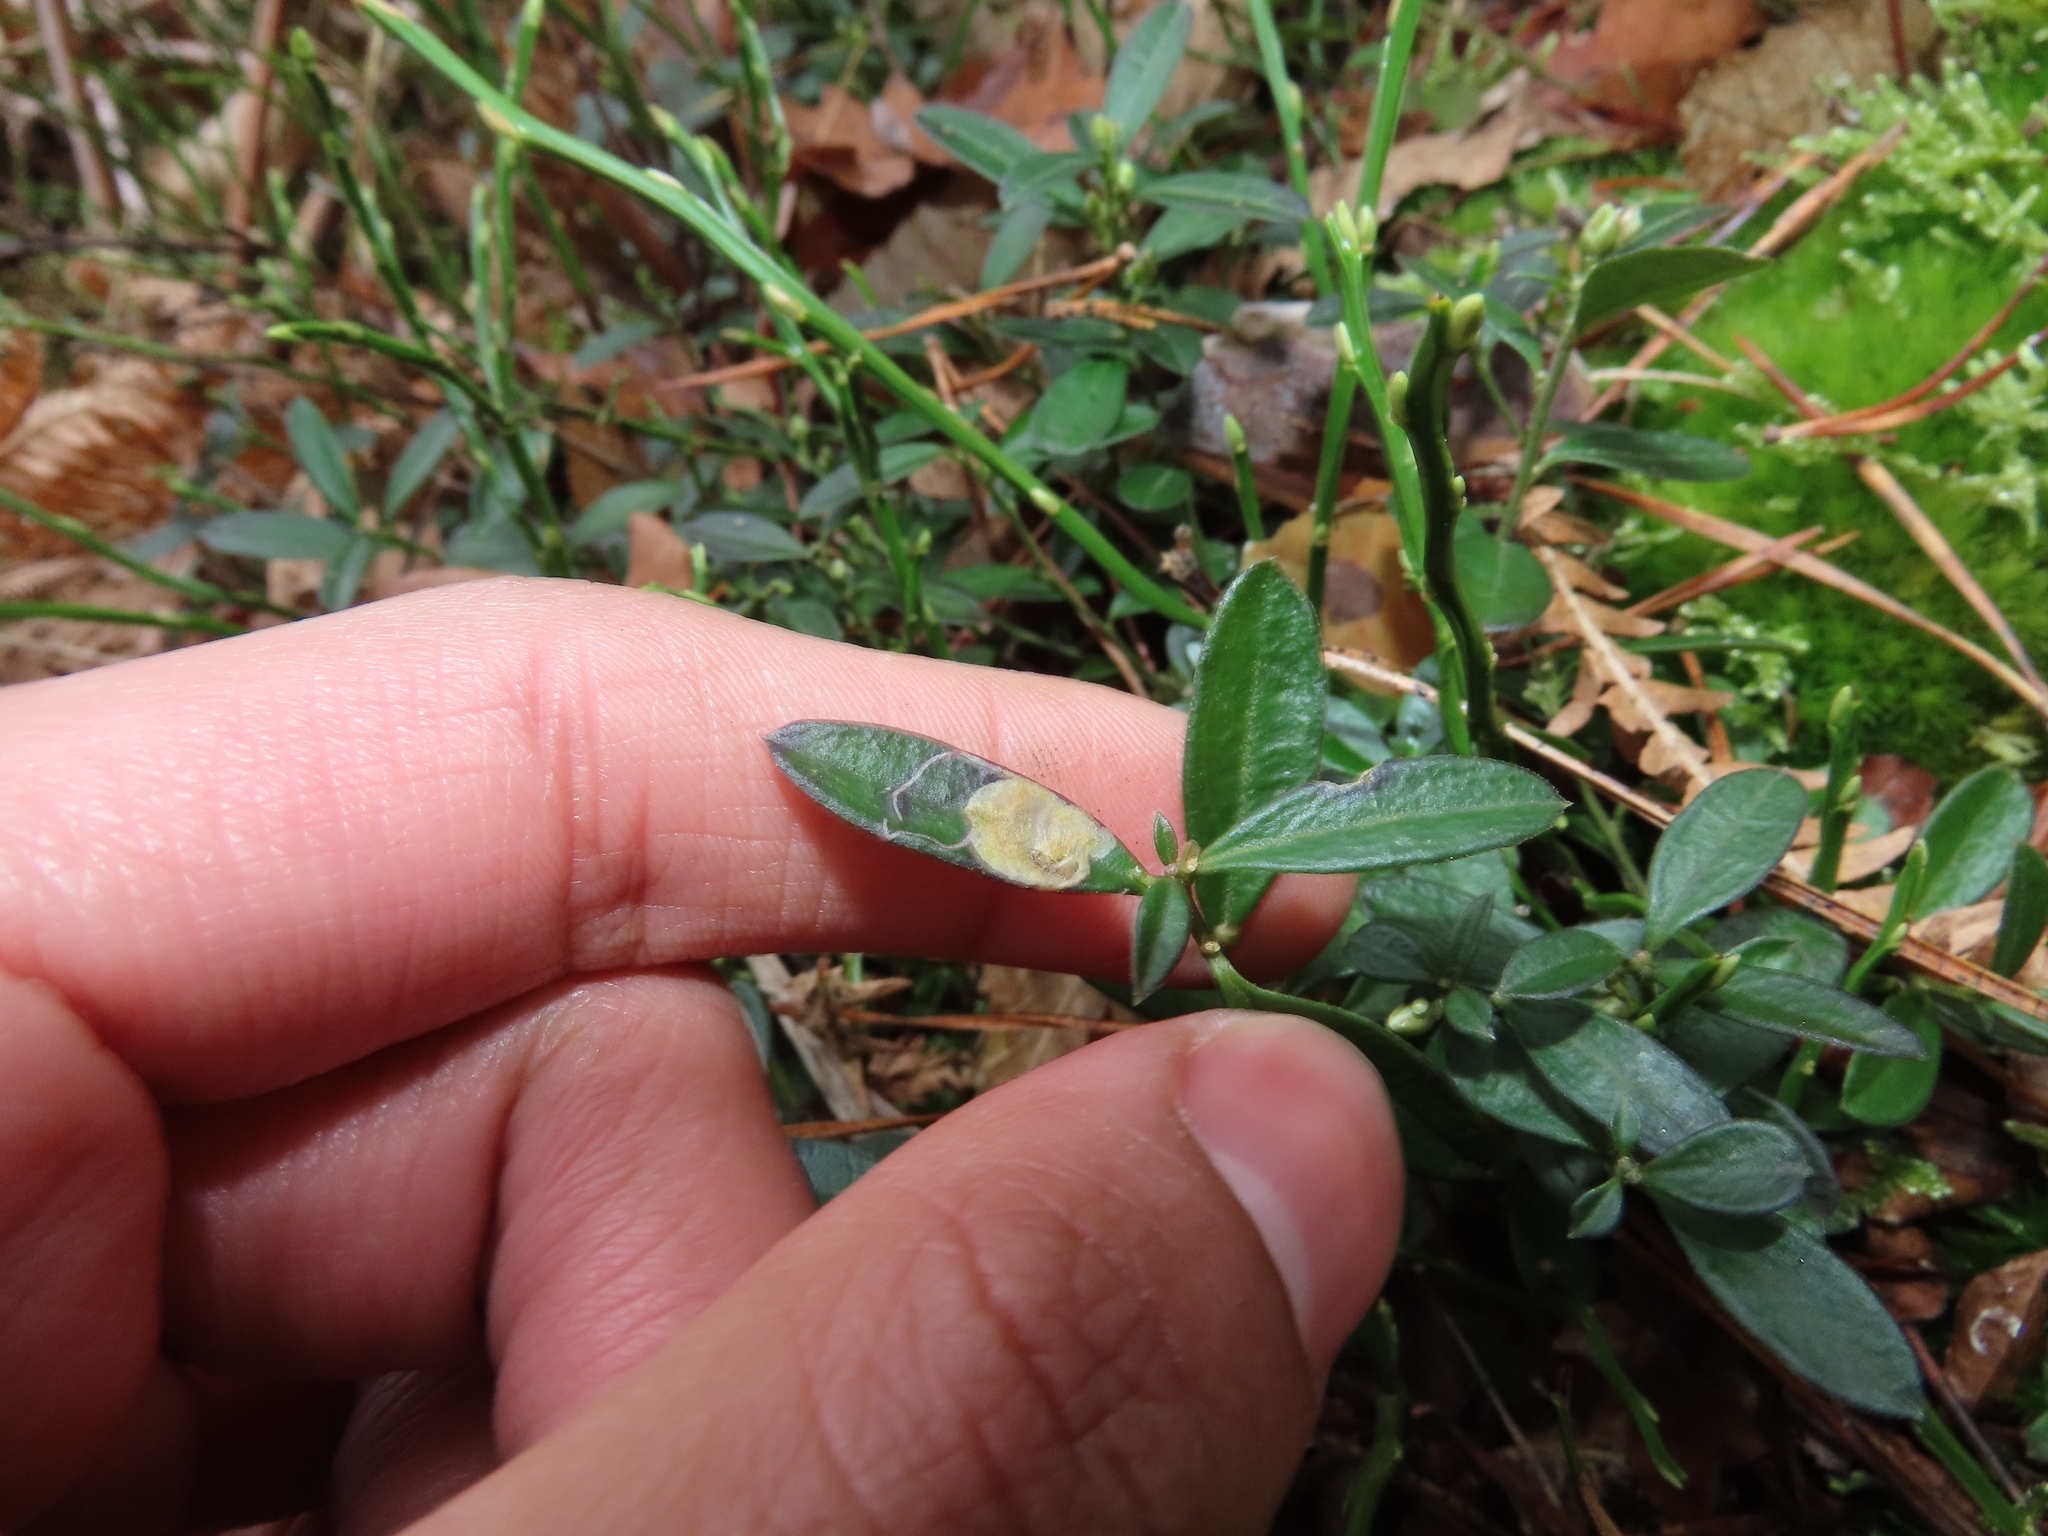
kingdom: Animalia
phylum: Arthropoda
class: Insecta
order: Diptera
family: Agromyzidae
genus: Liriomyza
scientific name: Liriomyza polygalae
